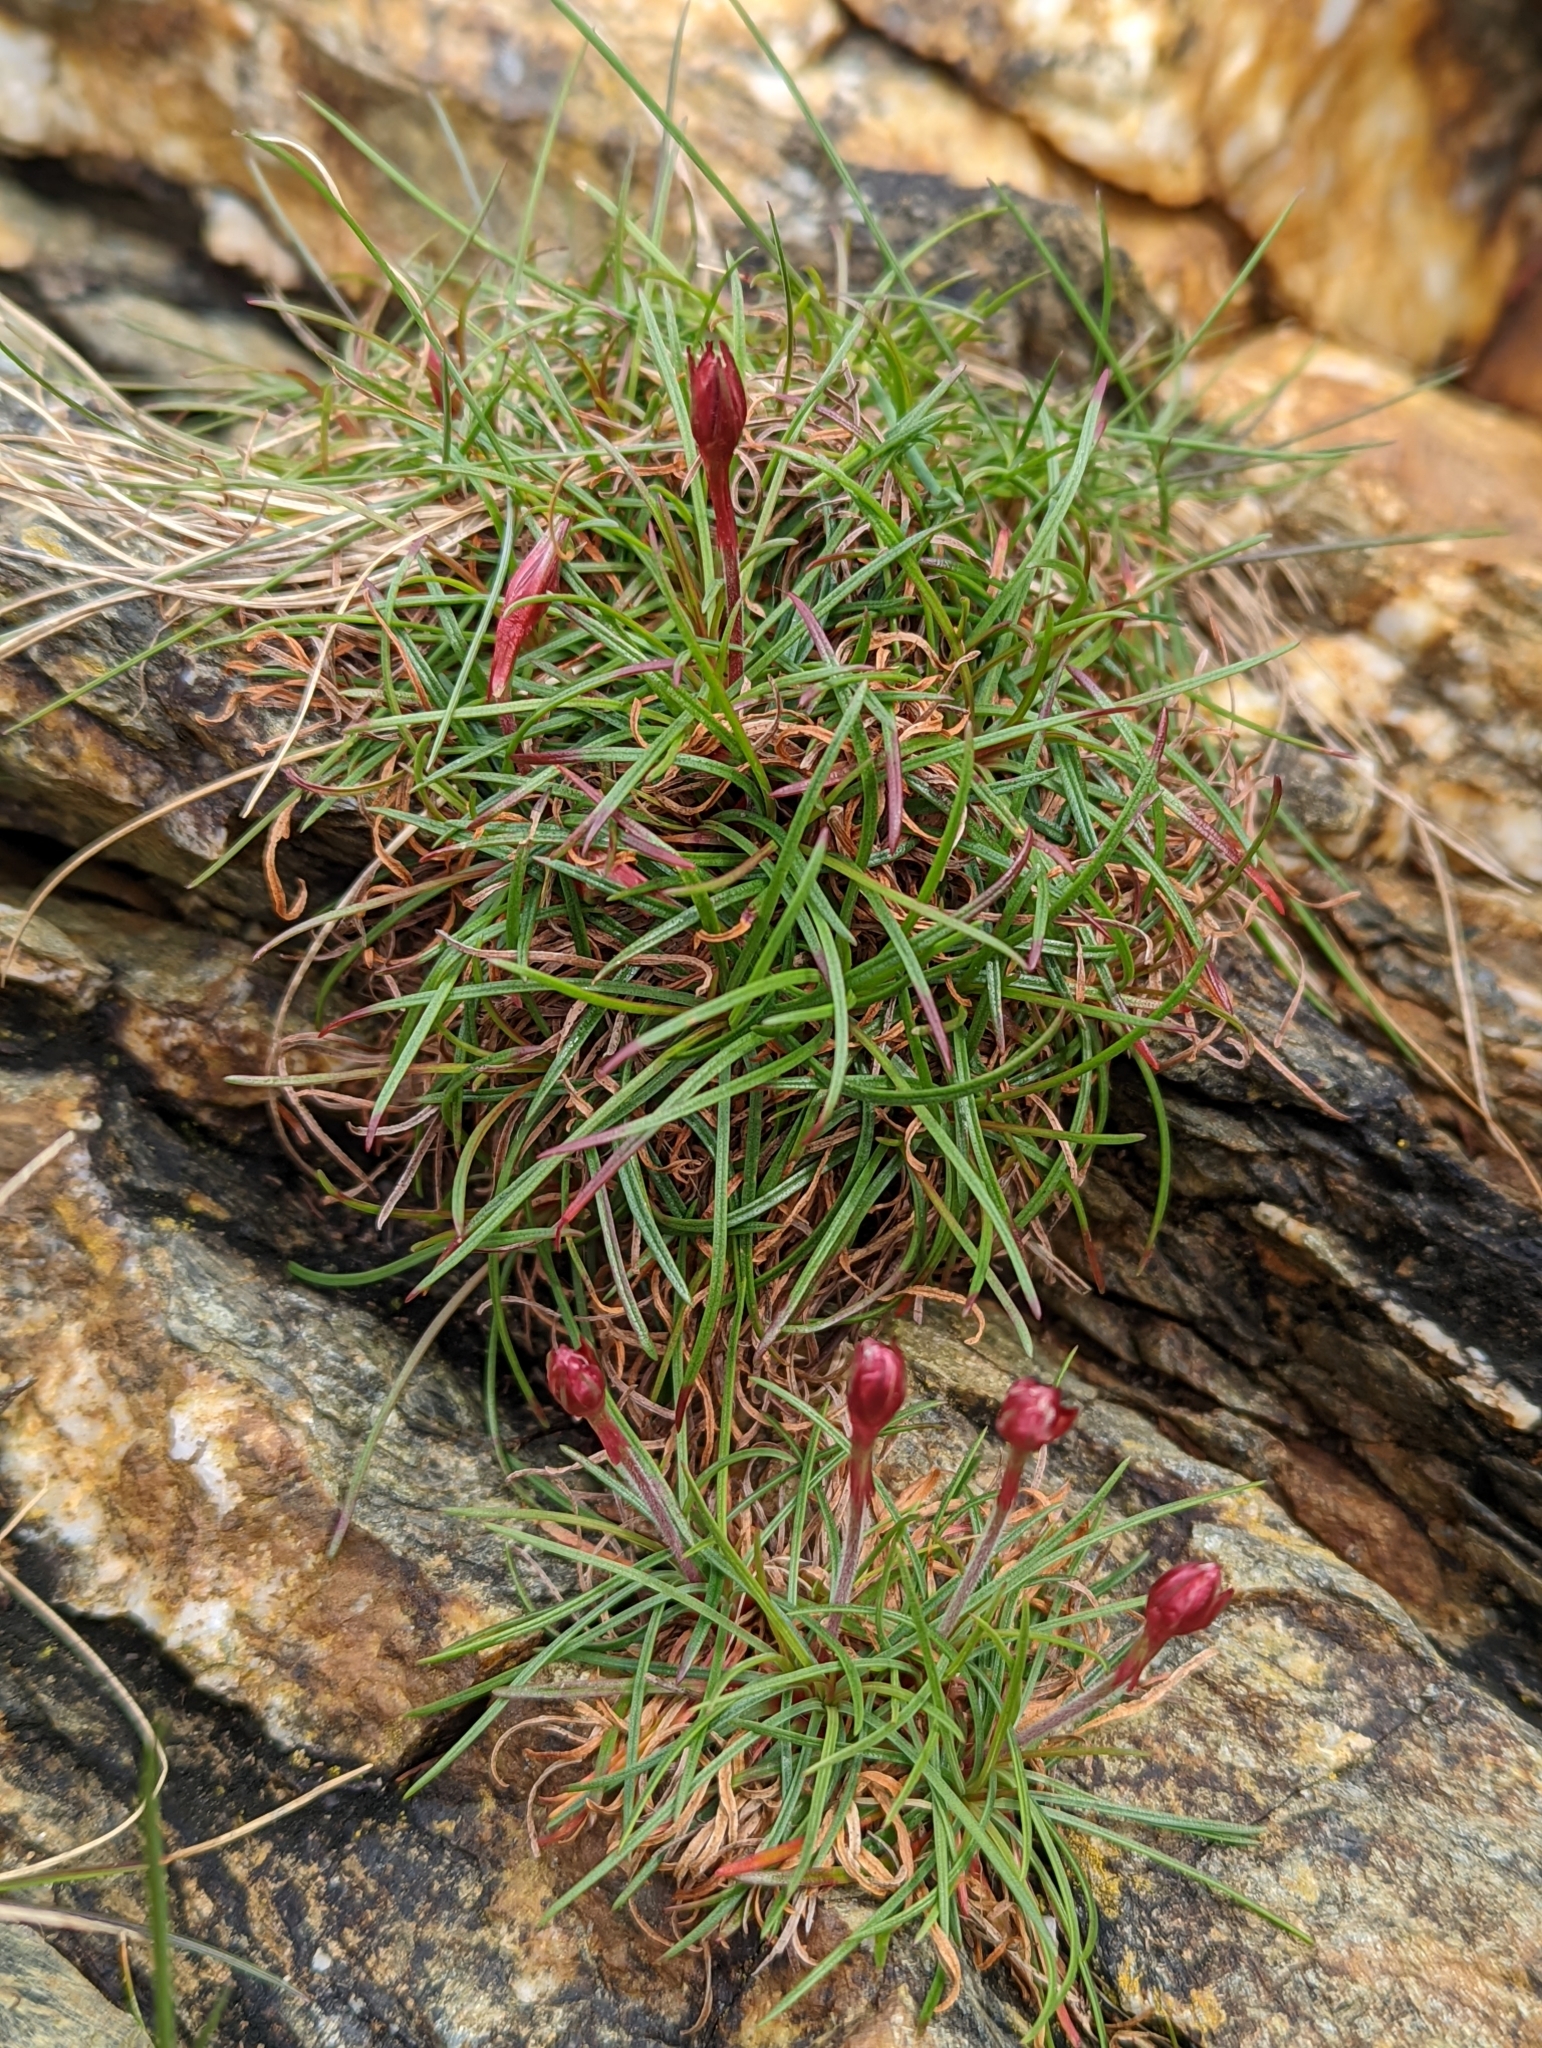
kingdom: Plantae
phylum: Tracheophyta
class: Magnoliopsida
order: Caryophyllales
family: Plumbaginaceae
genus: Armeria
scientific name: Armeria maritima
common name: Thrift
